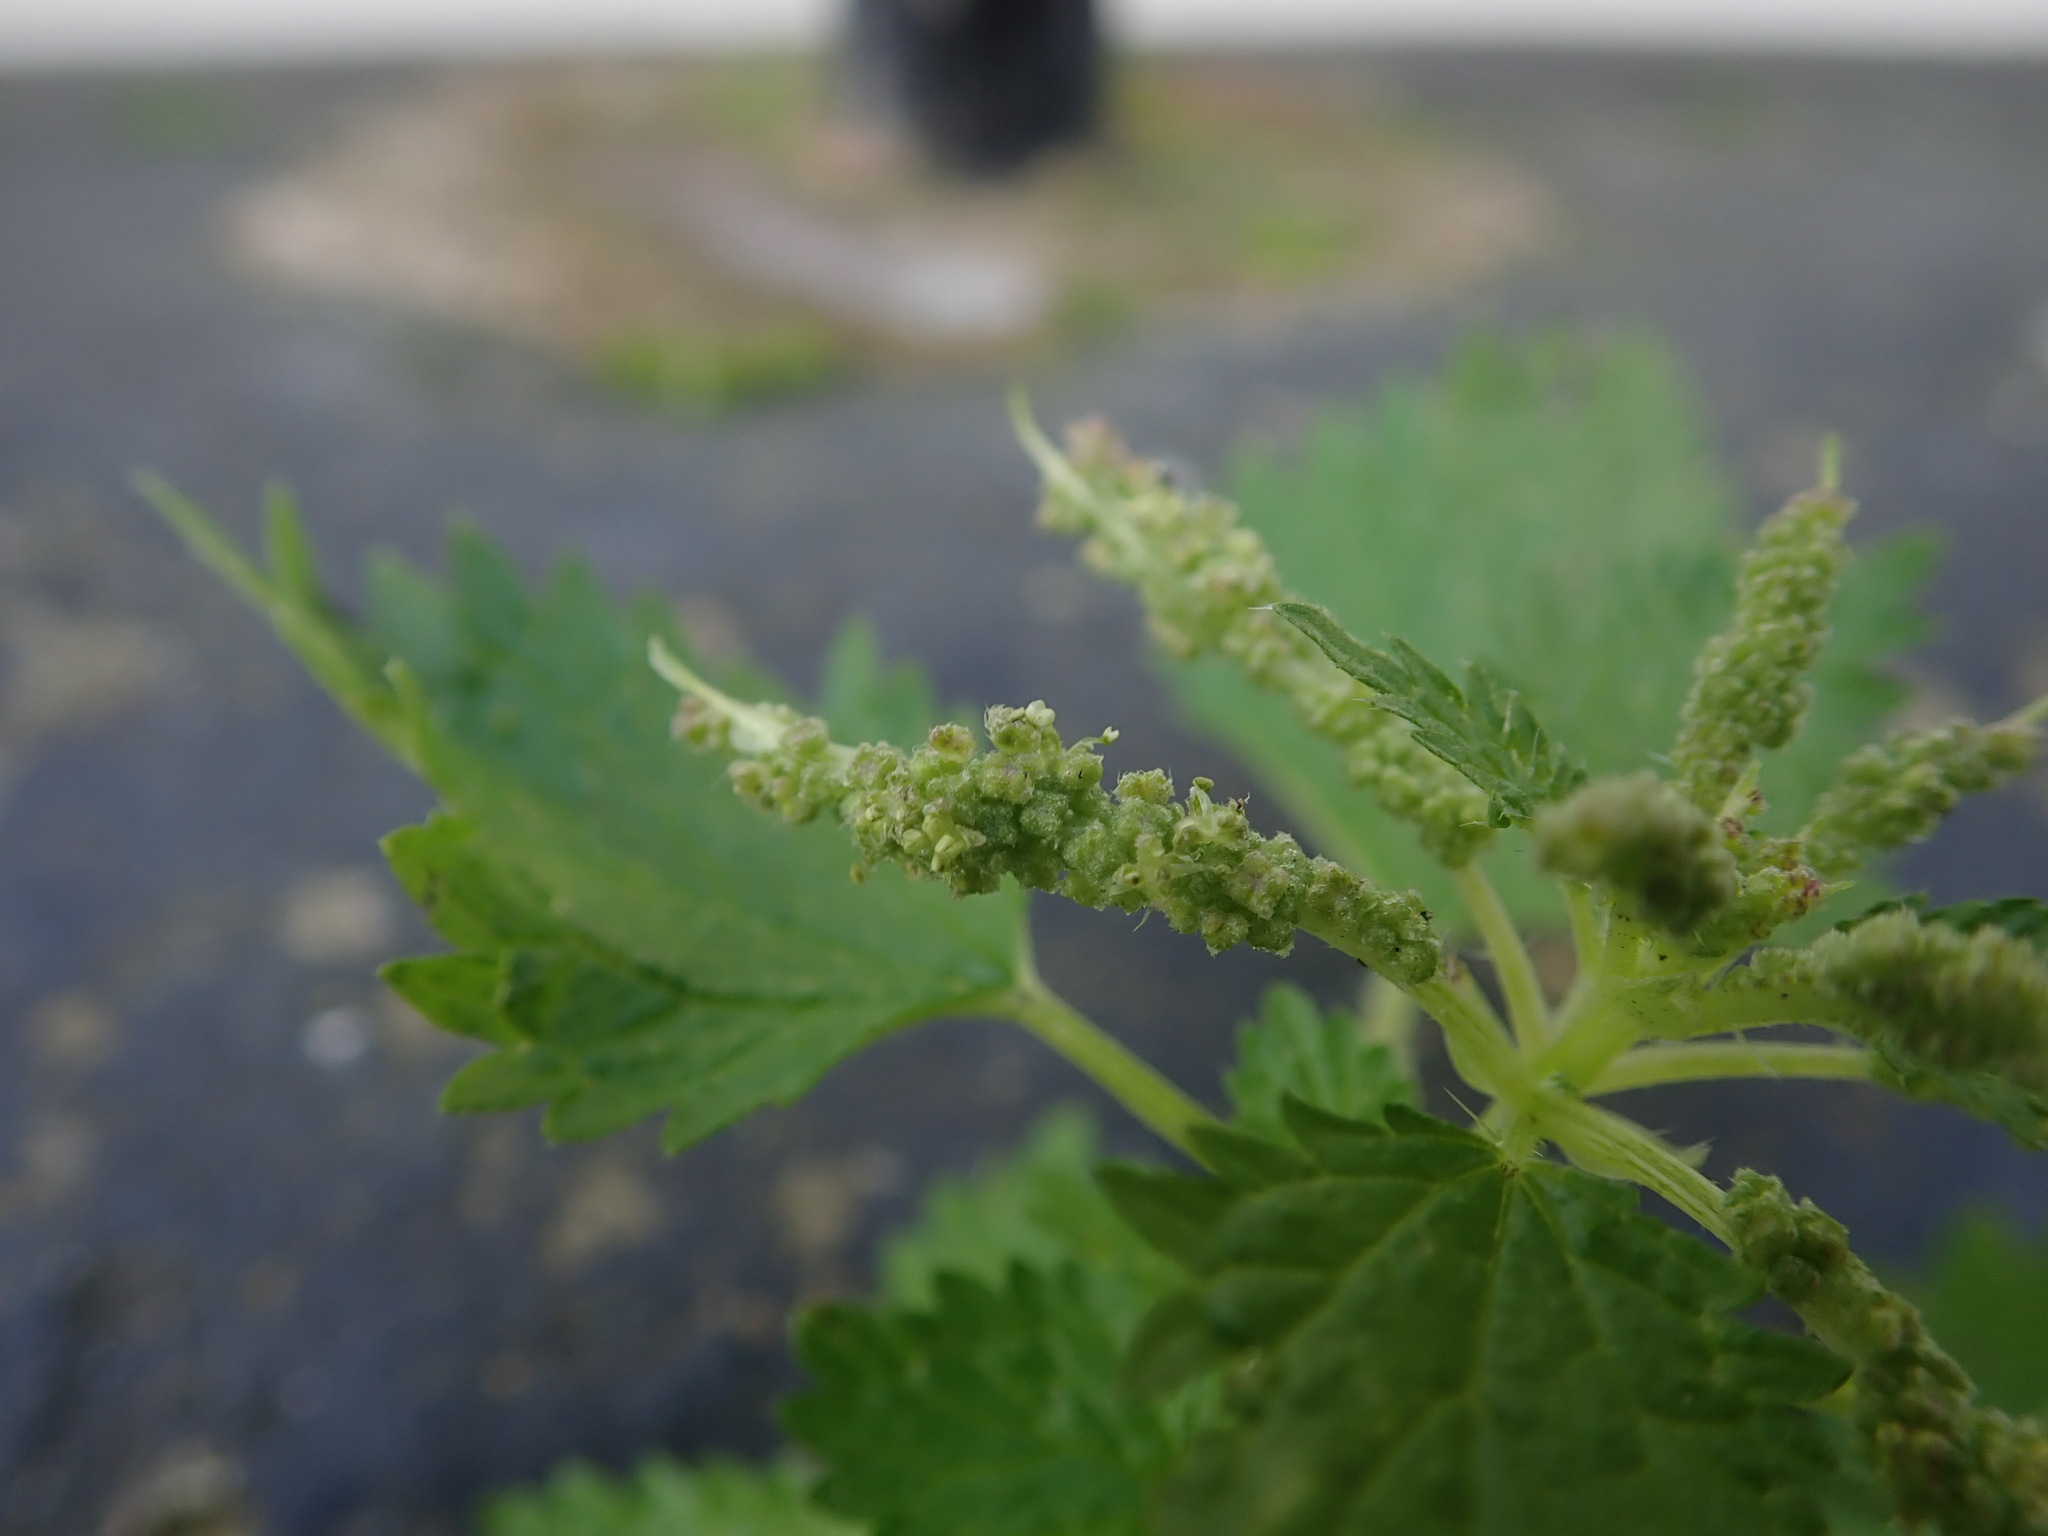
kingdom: Plantae
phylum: Tracheophyta
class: Magnoliopsida
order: Rosales
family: Urticaceae
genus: Urtica
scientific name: Urtica membranacea
